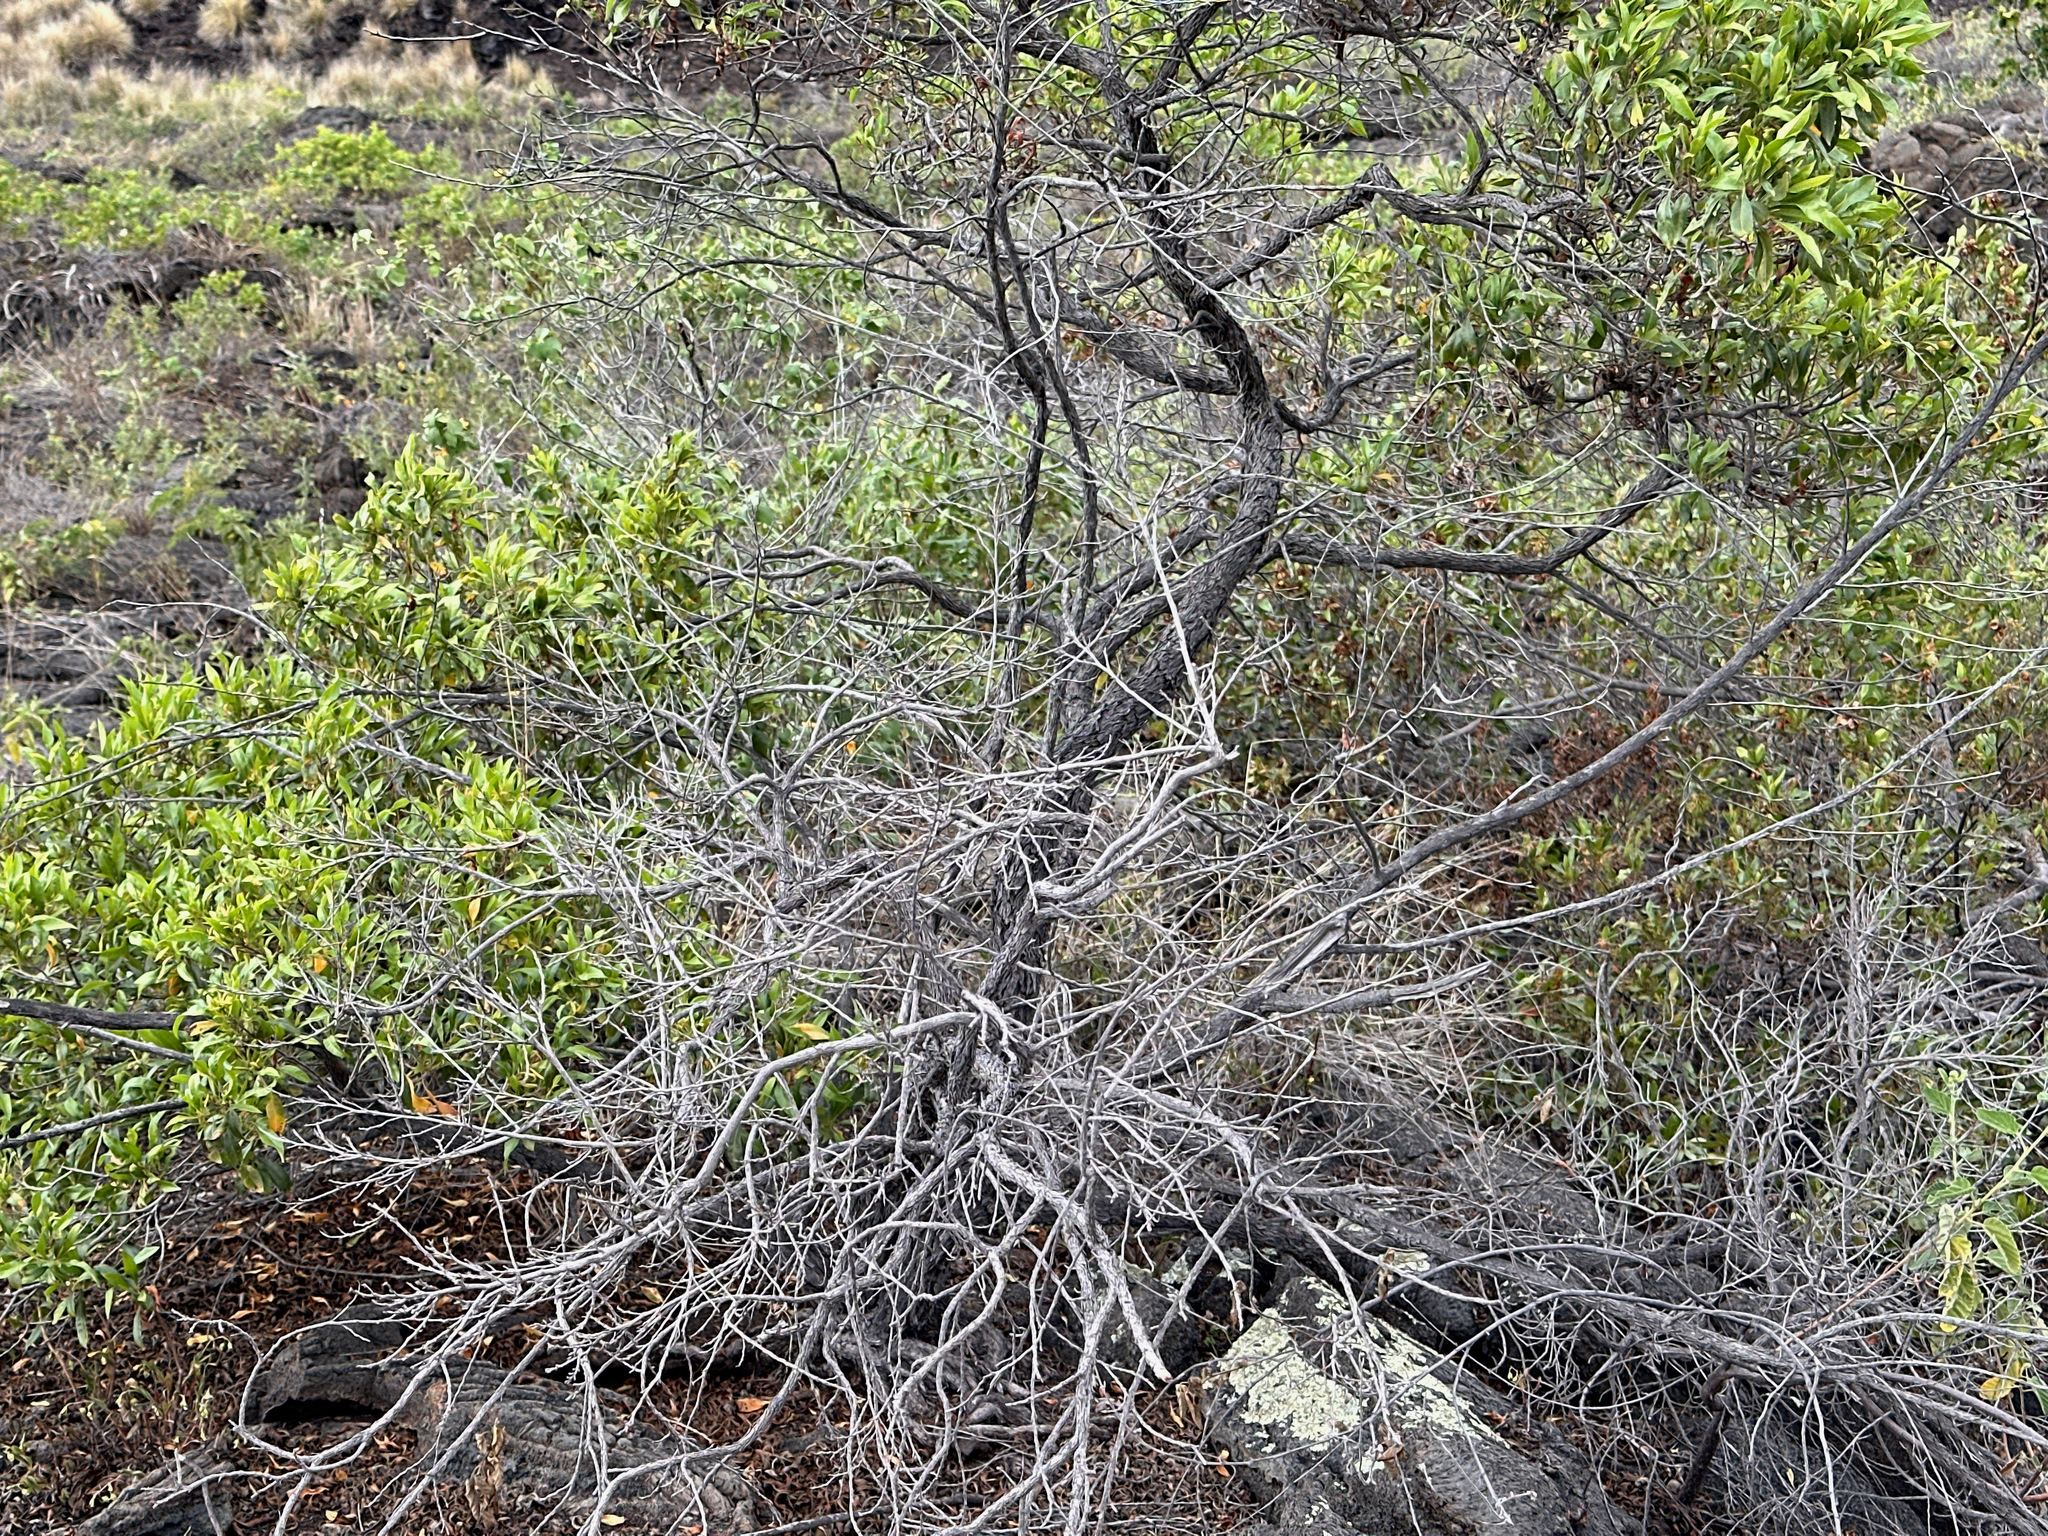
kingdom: Plantae
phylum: Tracheophyta
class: Magnoliopsida
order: Sapindales
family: Sapindaceae
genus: Dodonaea
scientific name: Dodonaea viscosa
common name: Hopbush
